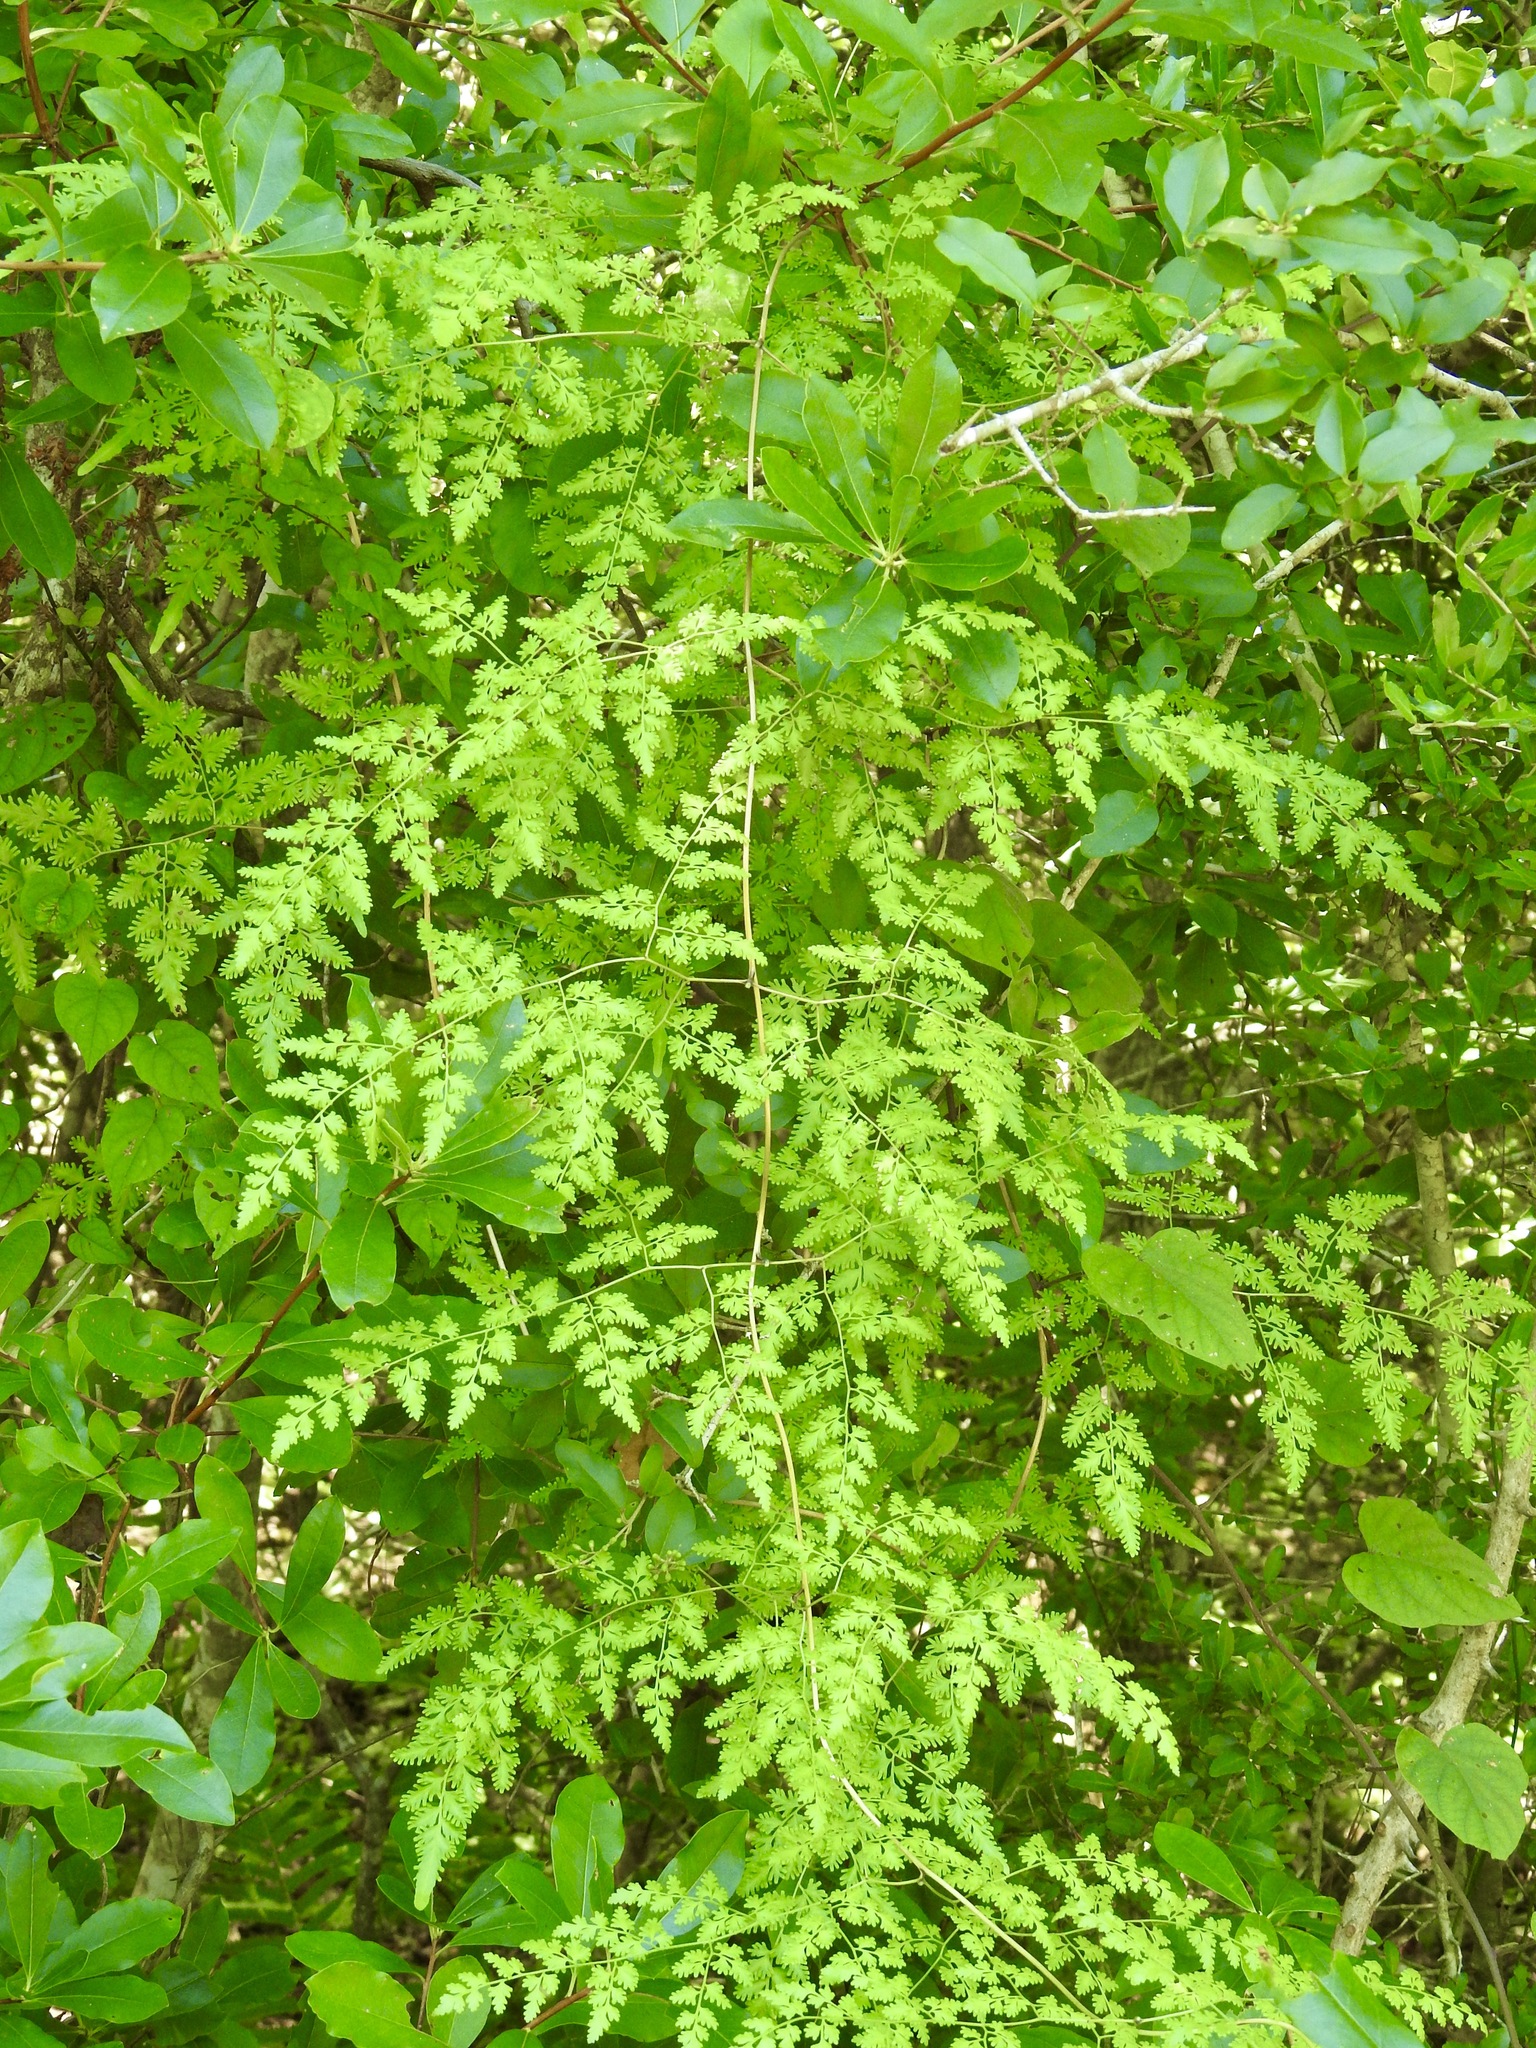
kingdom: Plantae
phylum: Tracheophyta
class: Polypodiopsida
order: Schizaeales
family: Lygodiaceae
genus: Lygodium
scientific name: Lygodium japonicum
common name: Japanese climbing fern
